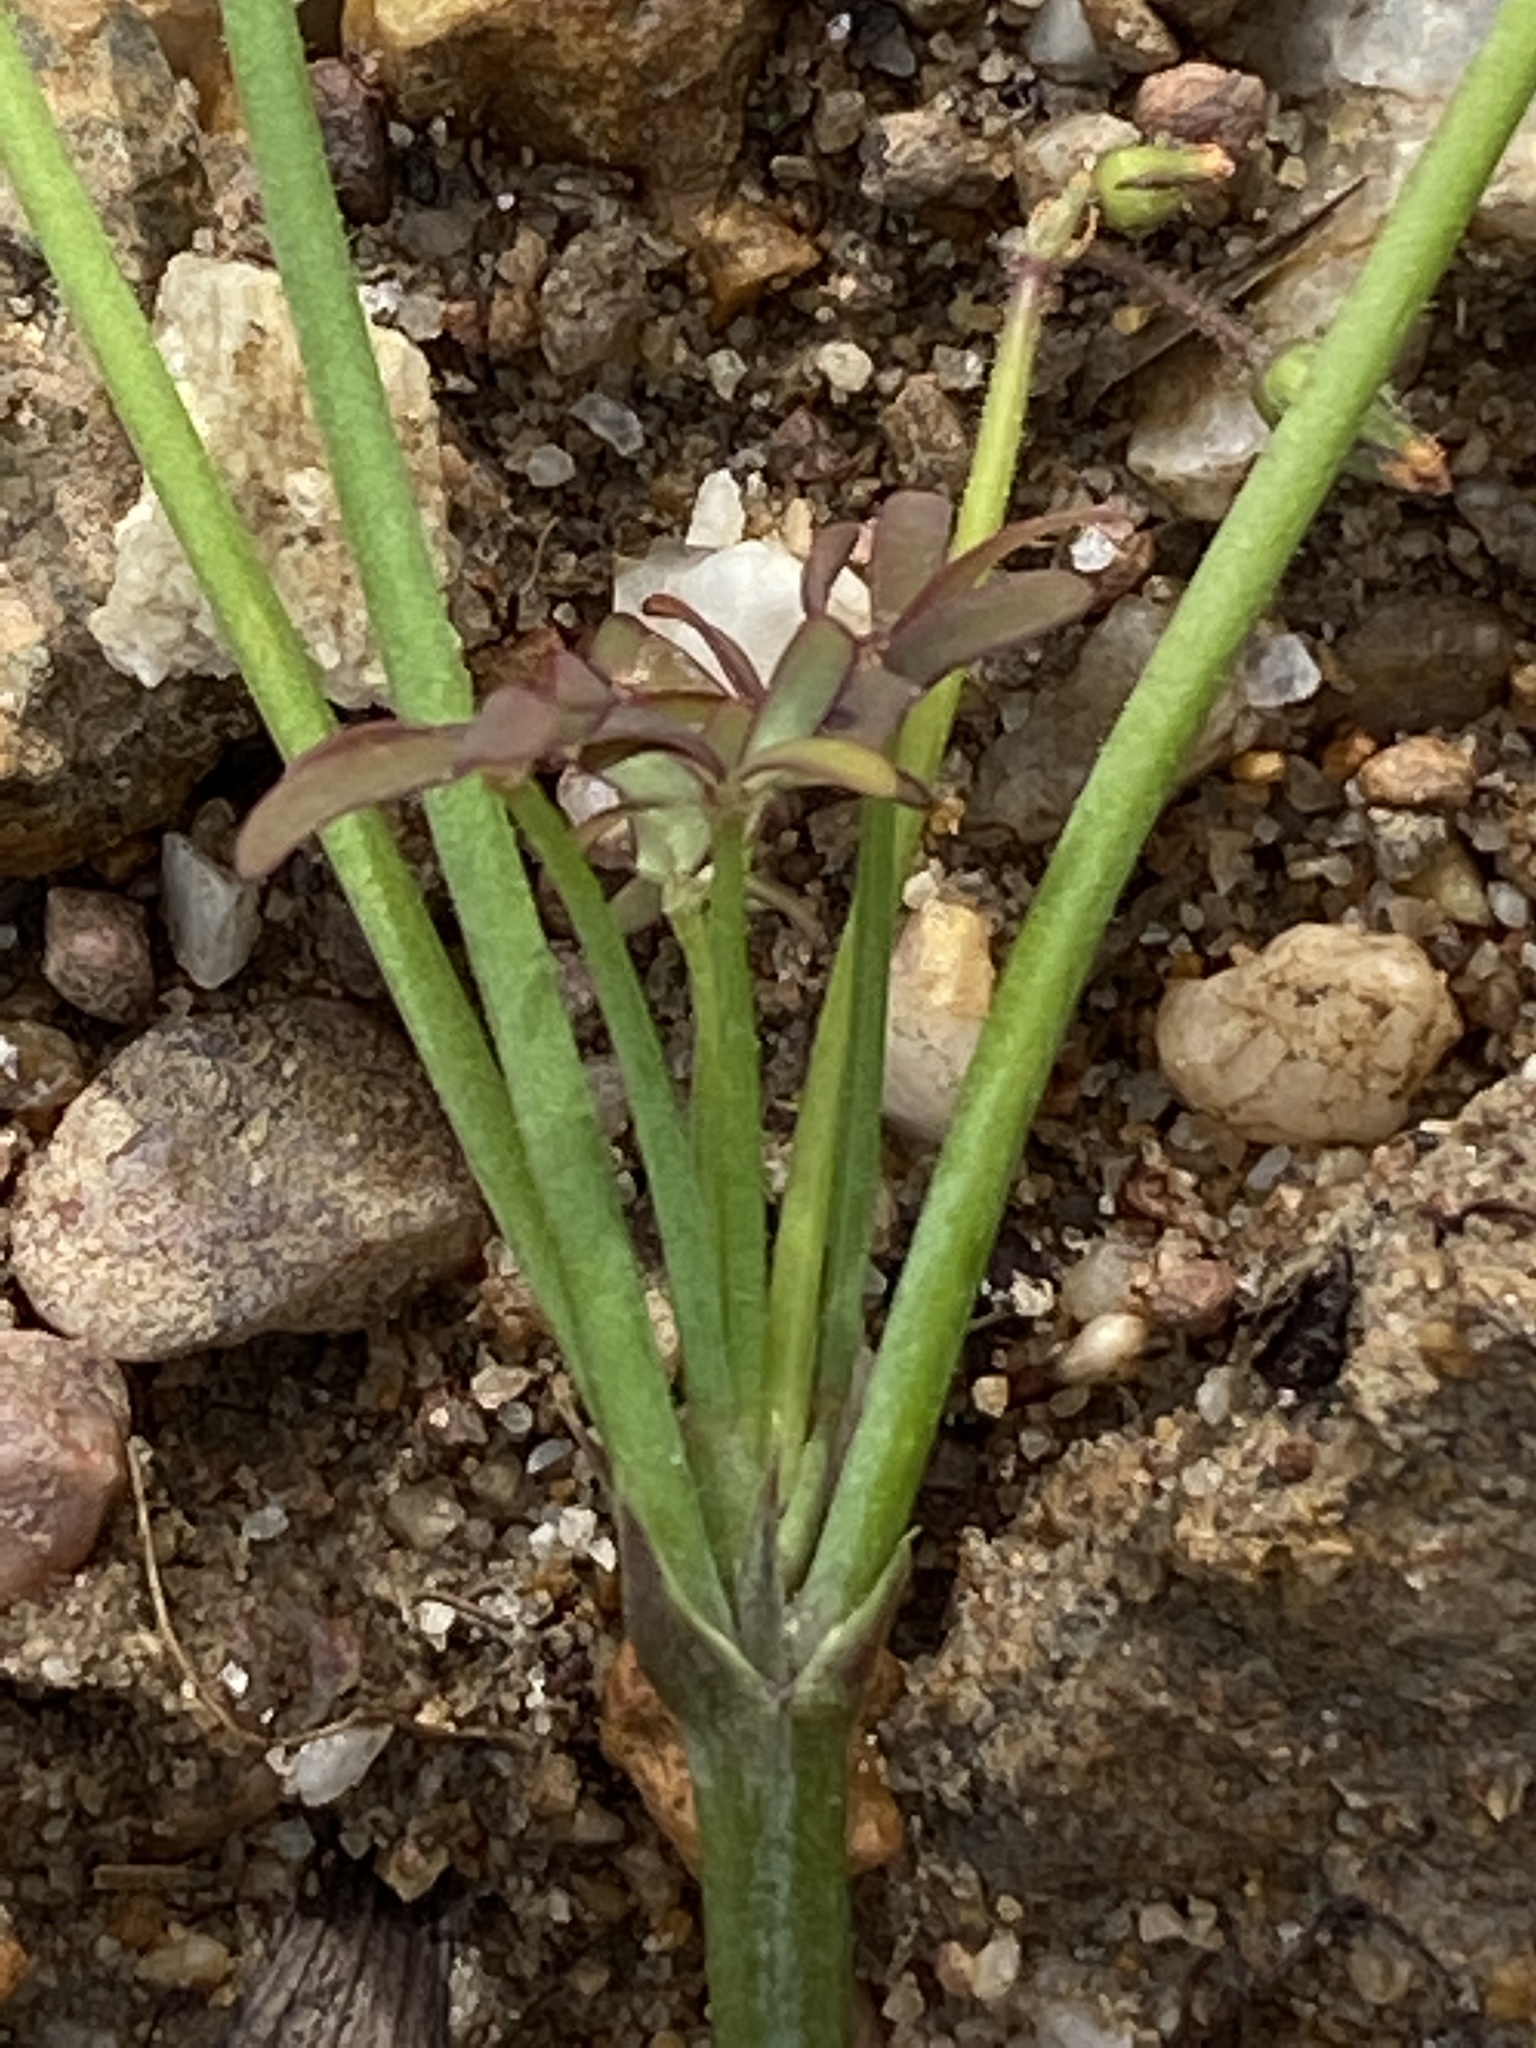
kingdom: Plantae
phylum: Tracheophyta
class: Magnoliopsida
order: Oxalidales
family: Oxalidaceae
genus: Oxalis
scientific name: Oxalis livida
